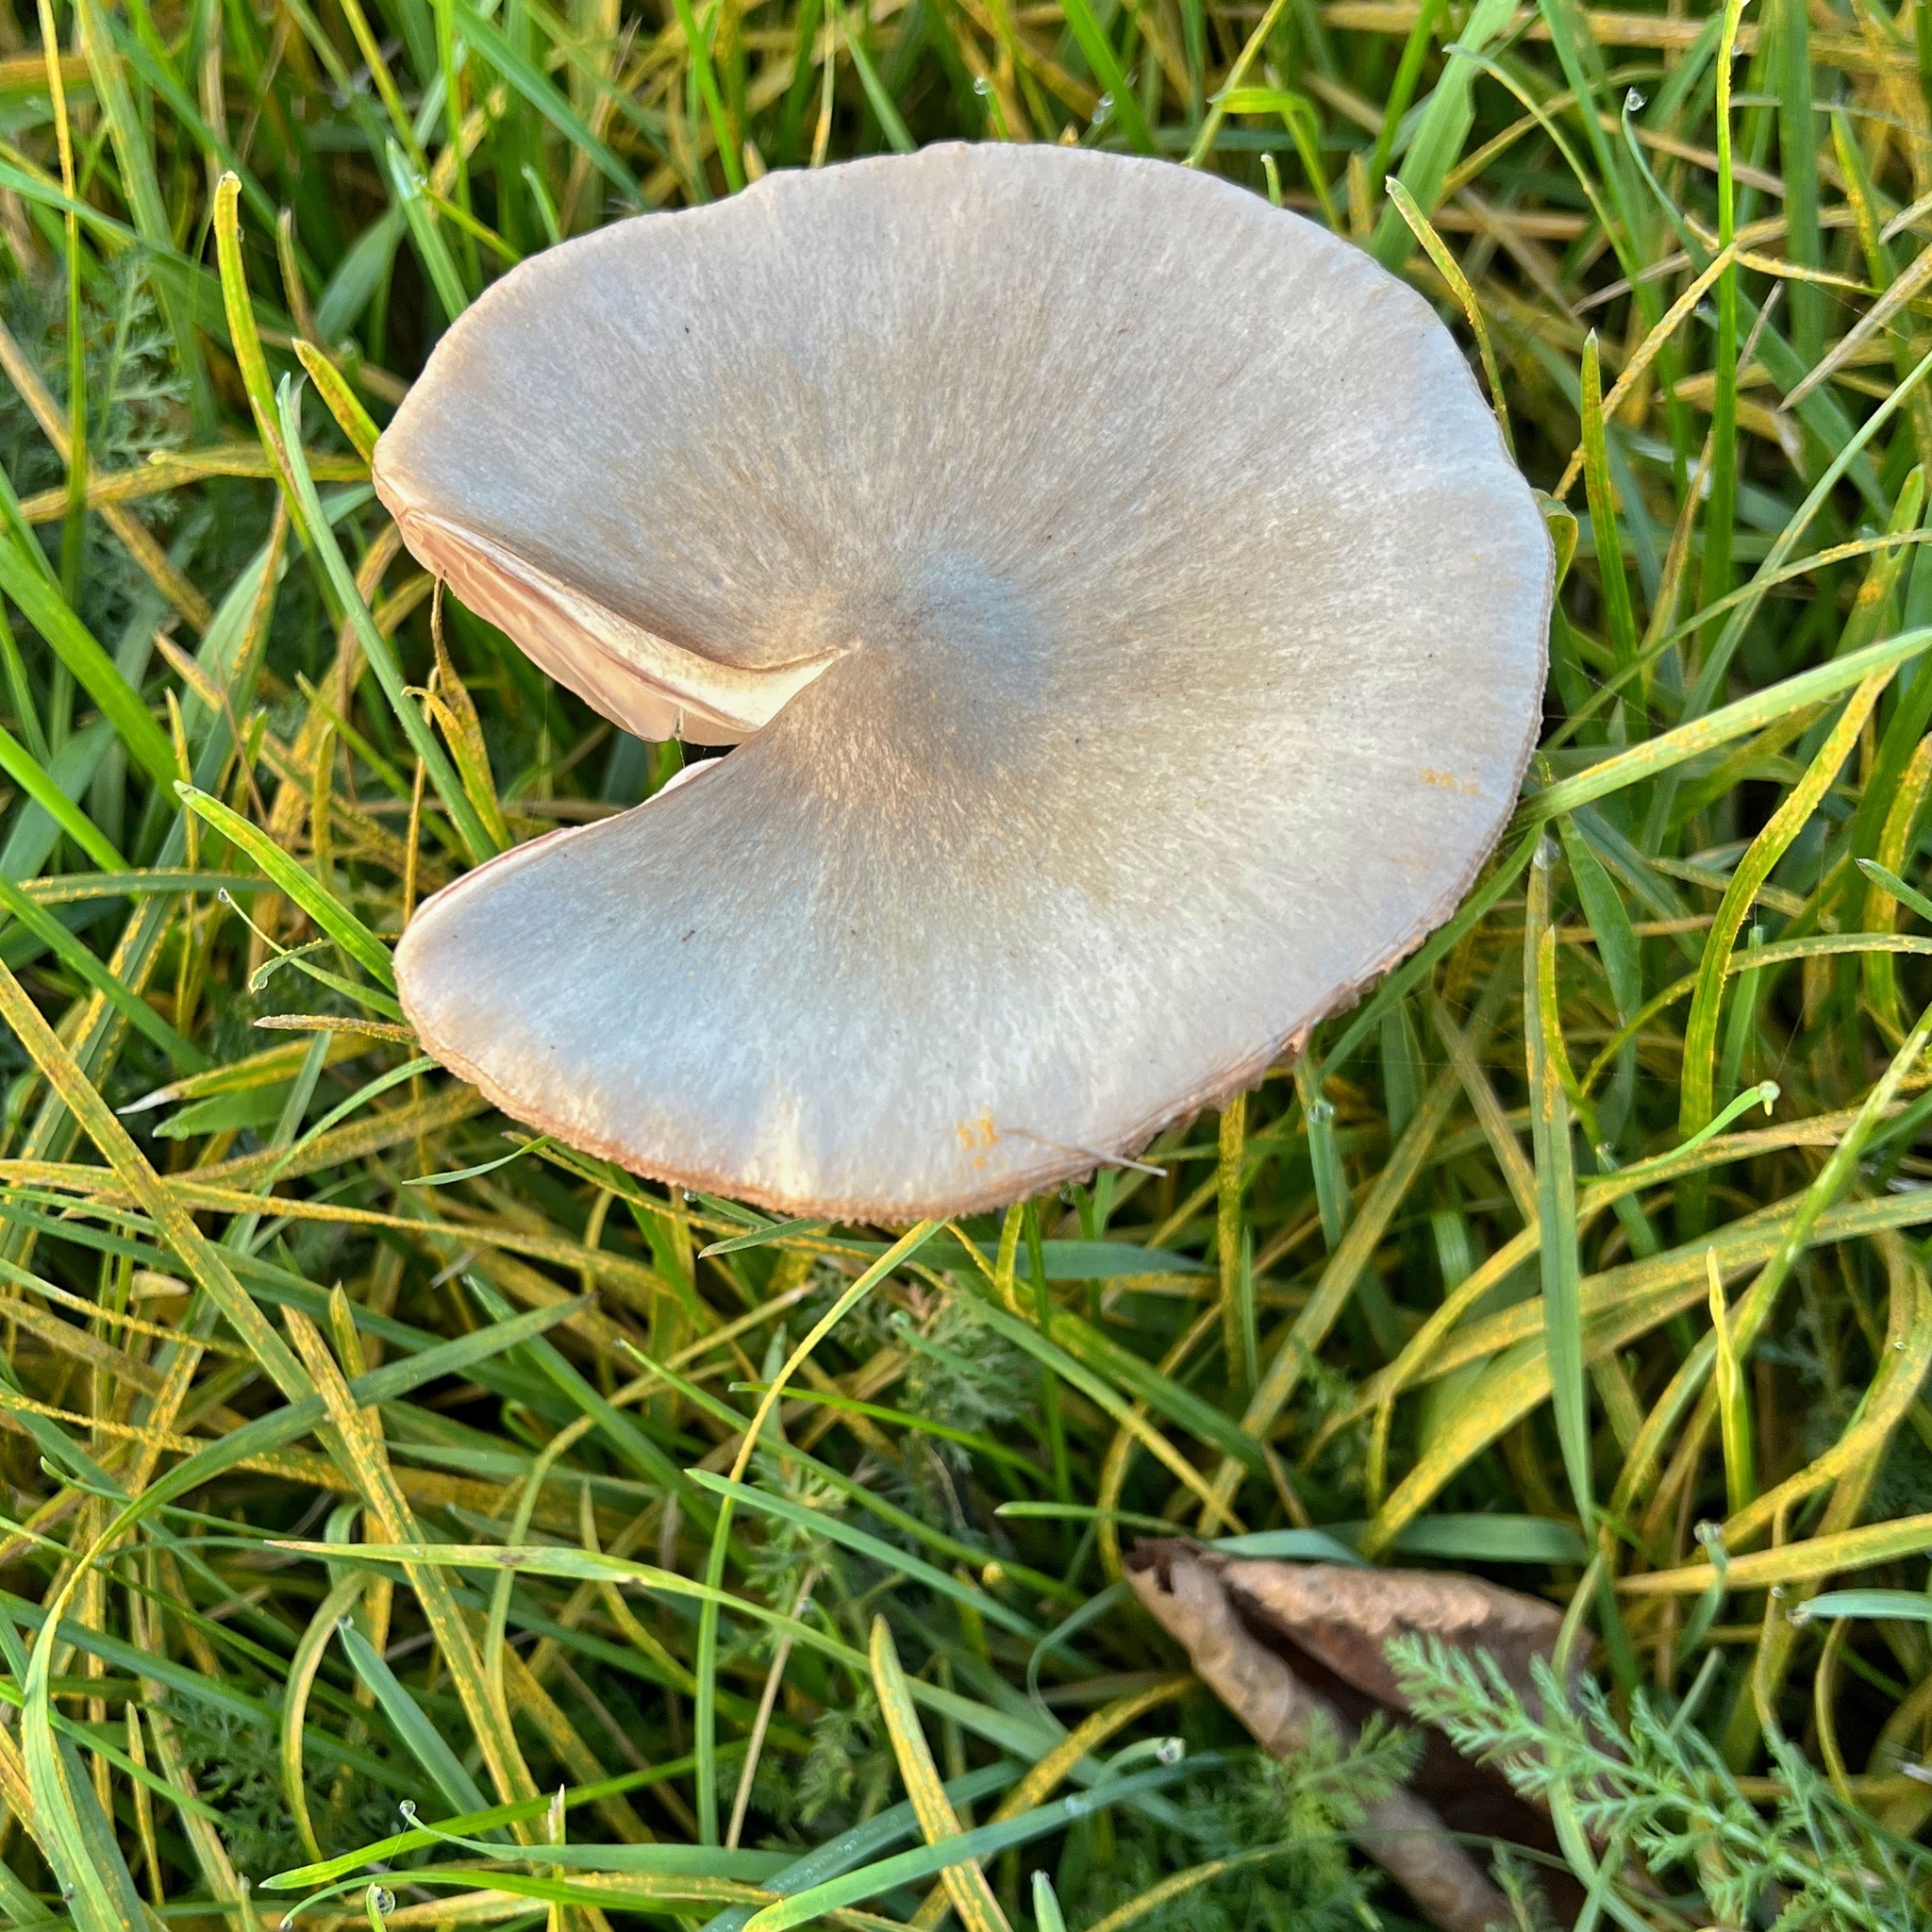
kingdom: Fungi
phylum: Basidiomycota
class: Agaricomycetes
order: Agaricales
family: Pluteaceae
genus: Volvopluteus
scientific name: Volvopluteus gloiocephalus
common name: Stubble rosegill
